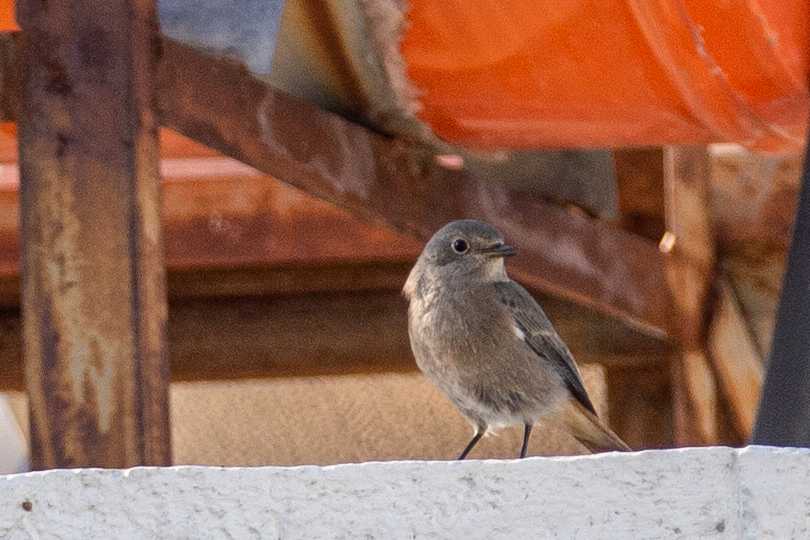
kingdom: Animalia
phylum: Chordata
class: Aves
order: Passeriformes
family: Muscicapidae
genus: Phoenicurus
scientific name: Phoenicurus ochruros
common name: Black redstart
